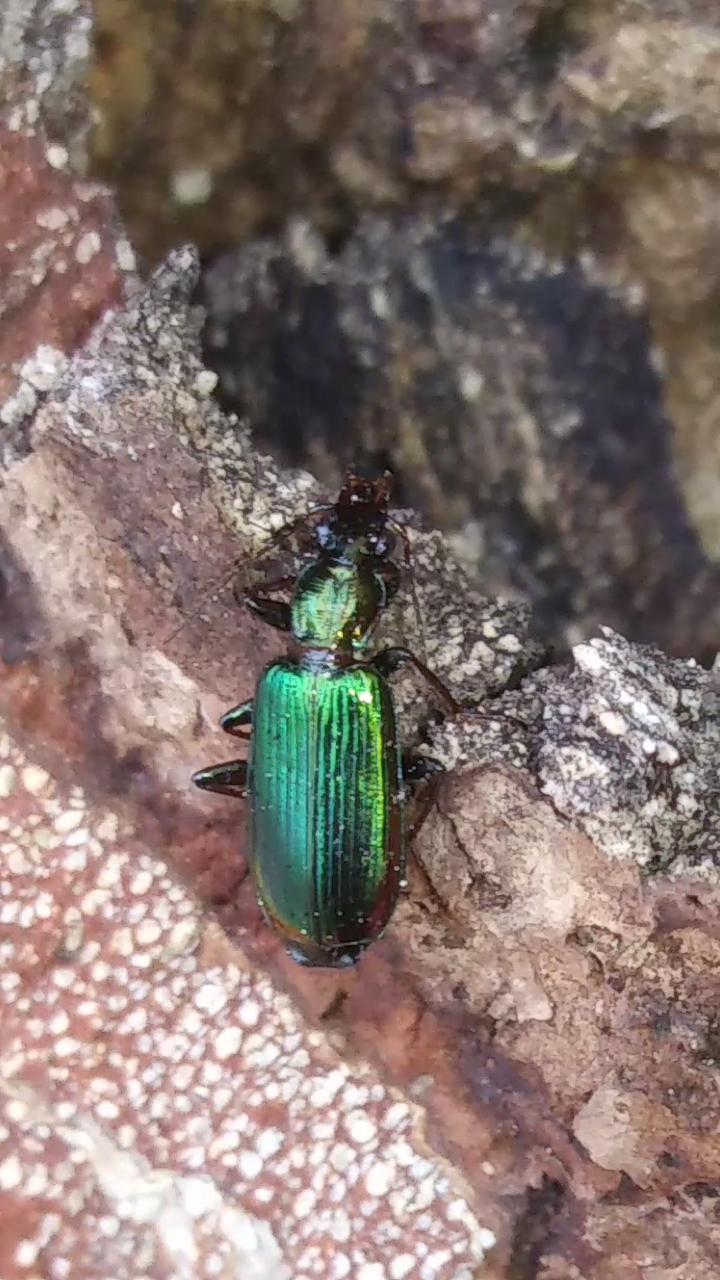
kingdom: Animalia
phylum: Arthropoda
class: Insecta
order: Coleoptera
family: Carabidae
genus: Calleida
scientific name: Calleida viridipennis
